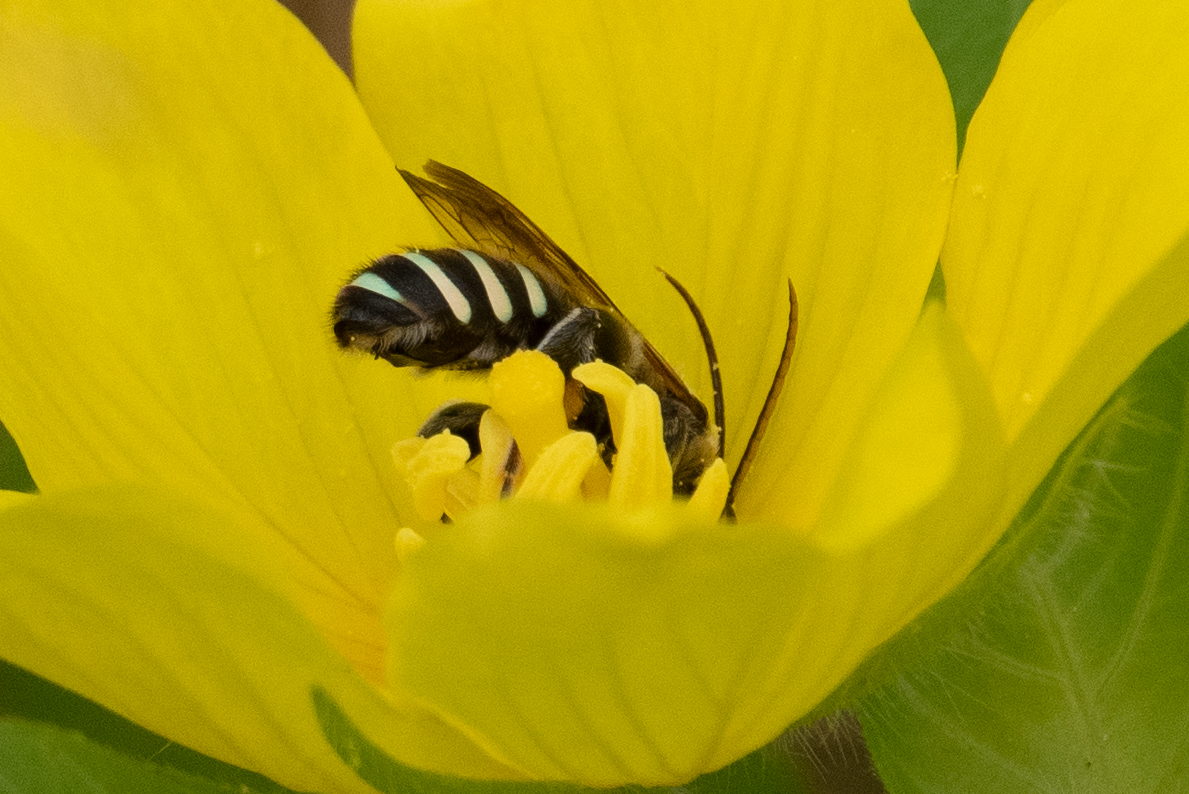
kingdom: Animalia
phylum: Arthropoda
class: Insecta
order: Hymenoptera
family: Halictidae
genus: Nomia
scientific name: Nomia melanderi
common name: Alkali bee
